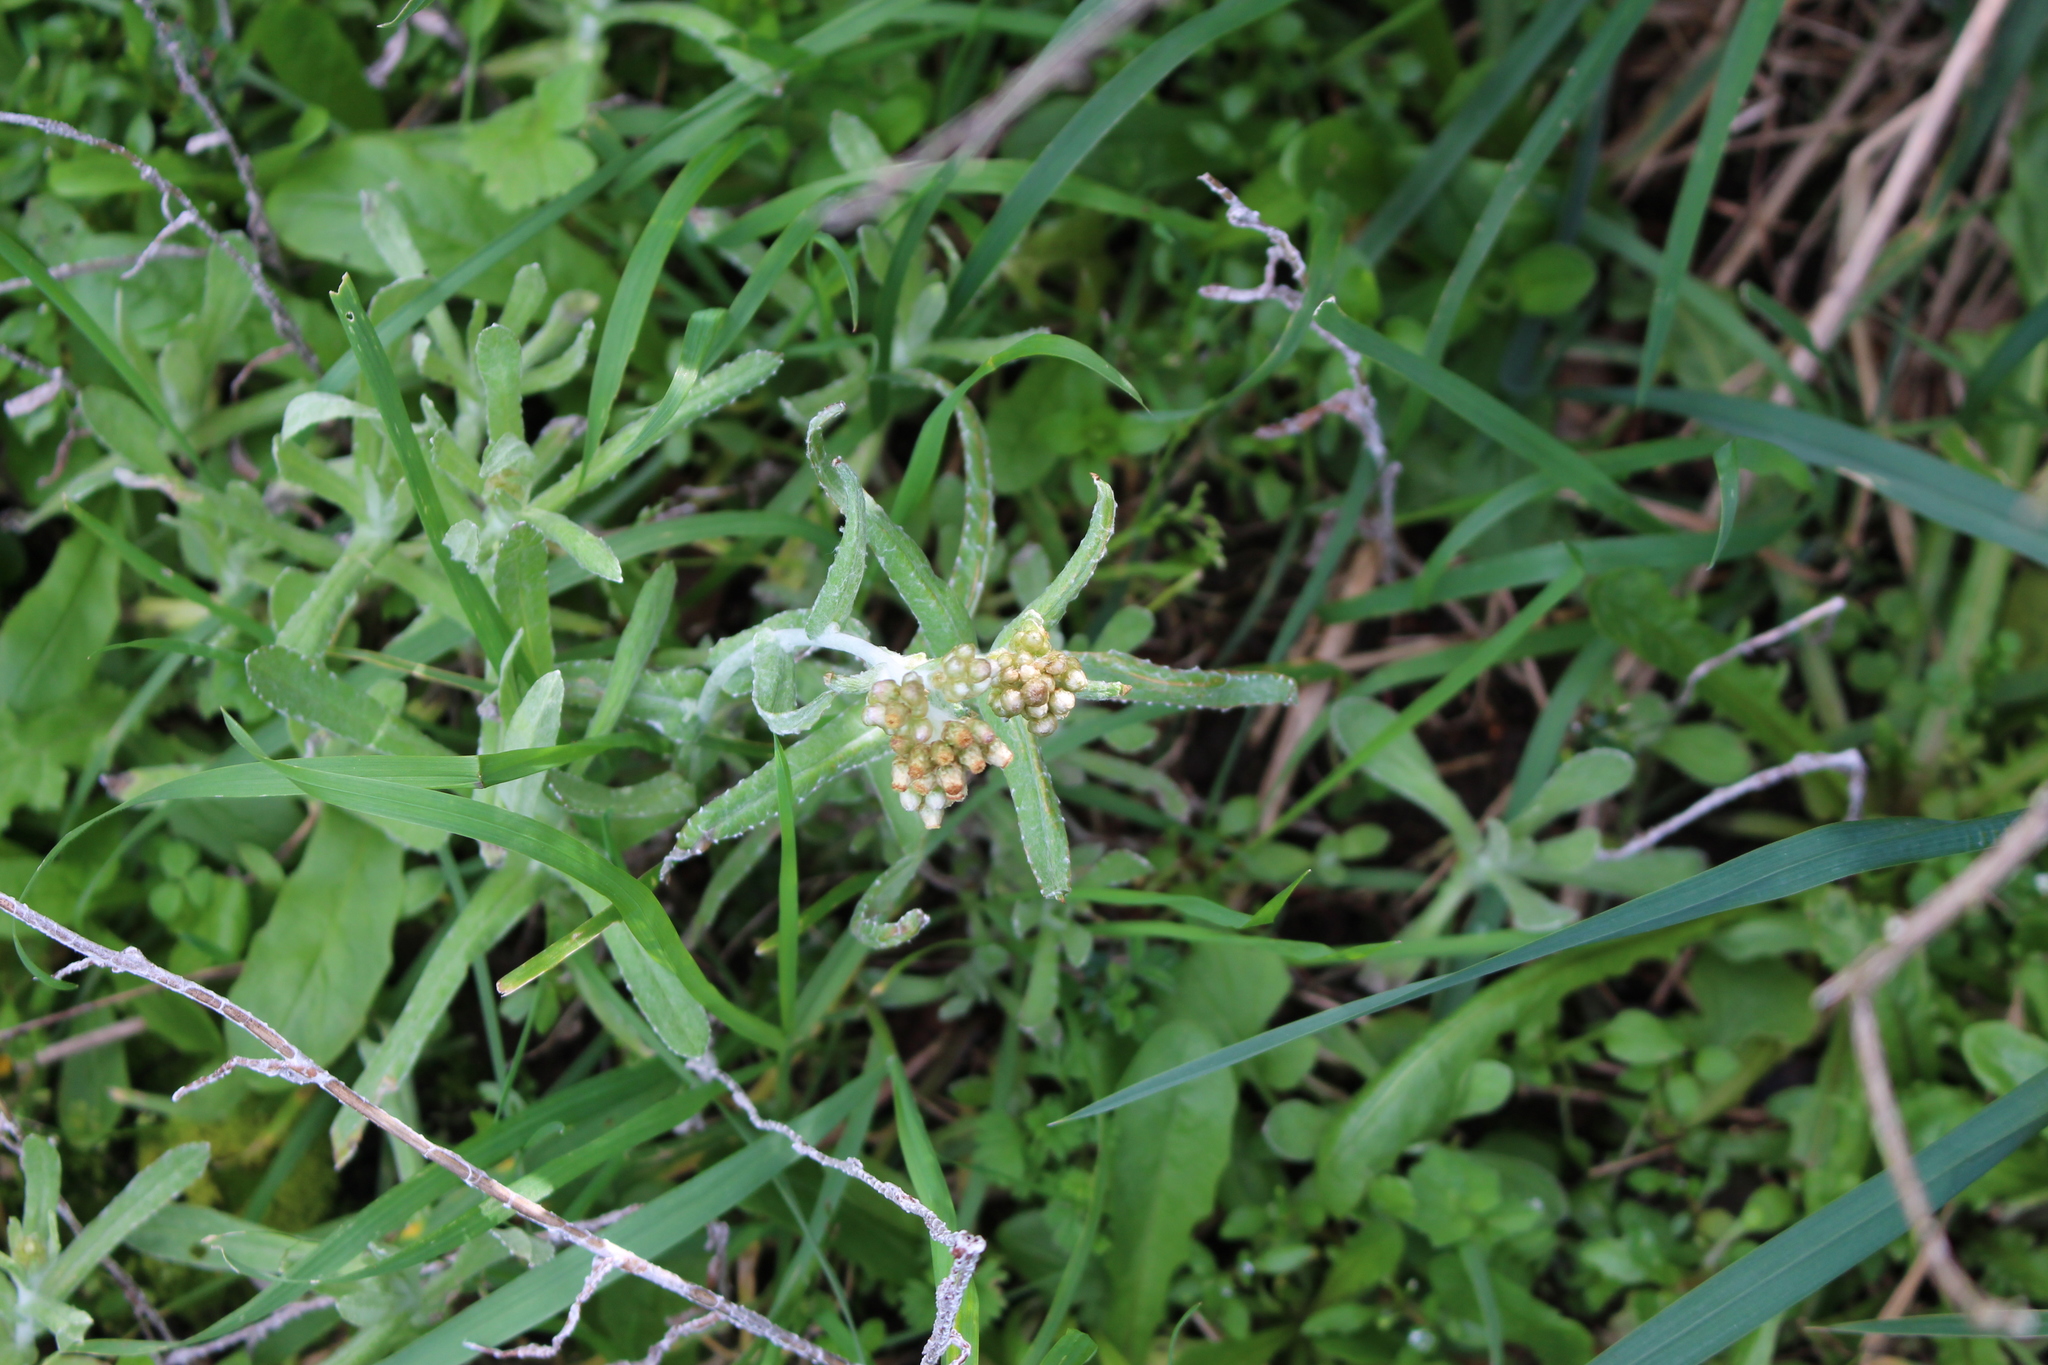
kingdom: Plantae
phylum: Tracheophyta
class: Magnoliopsida
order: Asterales
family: Asteraceae
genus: Helichrysum
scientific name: Helichrysum luteoalbum
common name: Daisy
